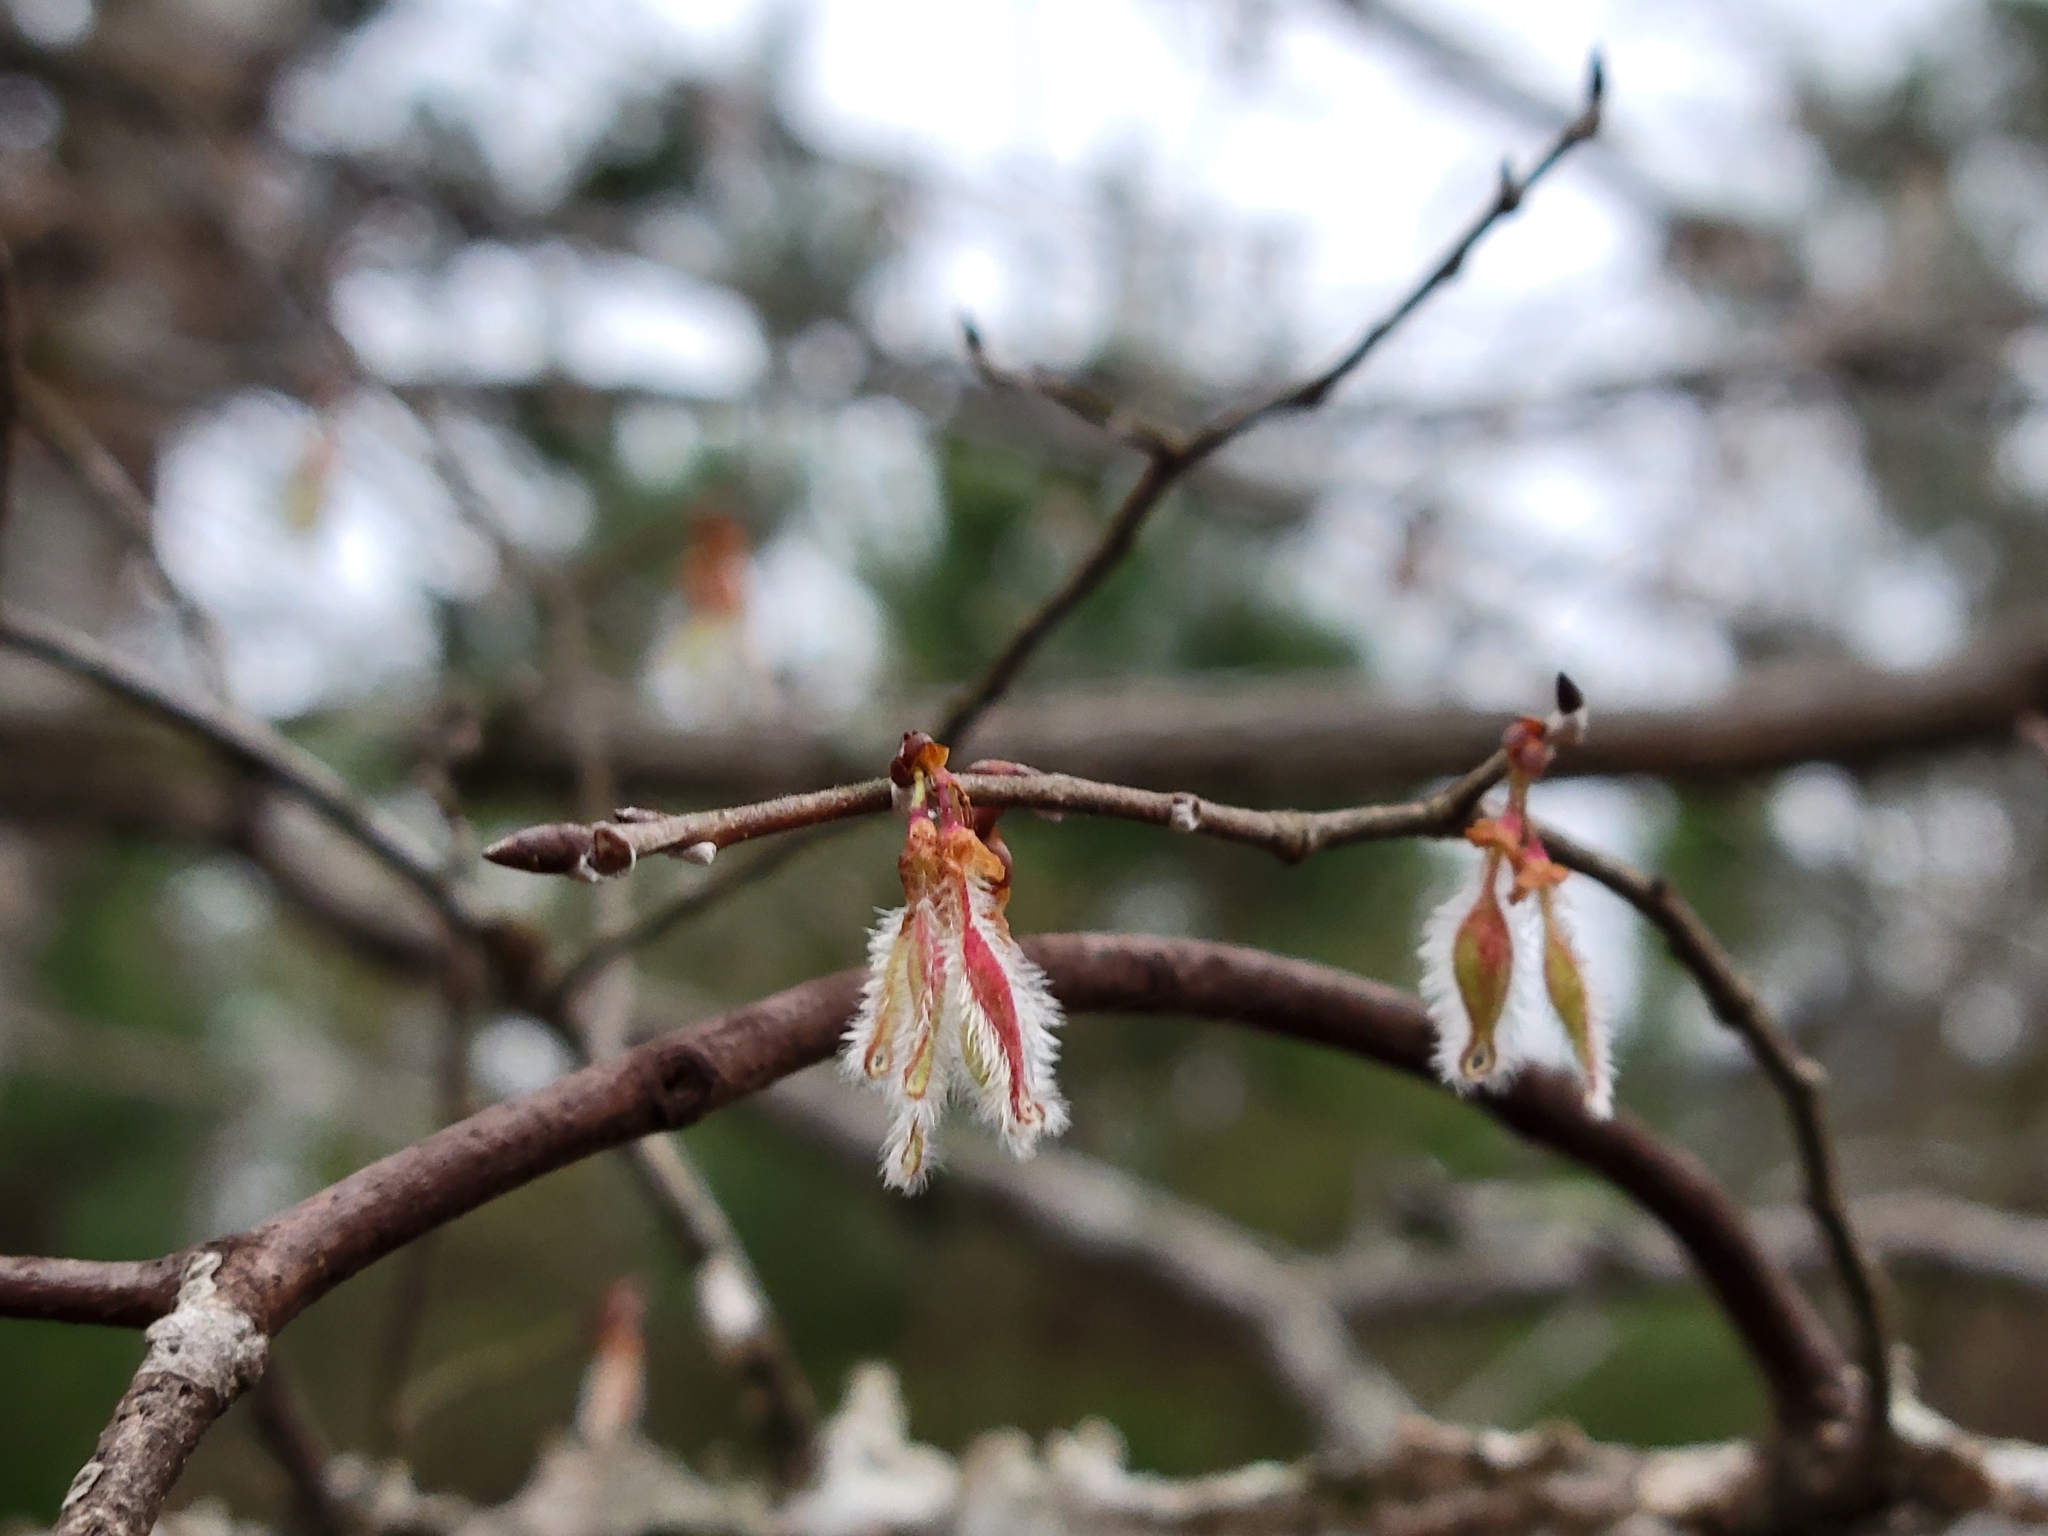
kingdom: Plantae
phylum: Tracheophyta
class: Magnoliopsida
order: Rosales
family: Ulmaceae
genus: Ulmus
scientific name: Ulmus alata
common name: Winged elm
